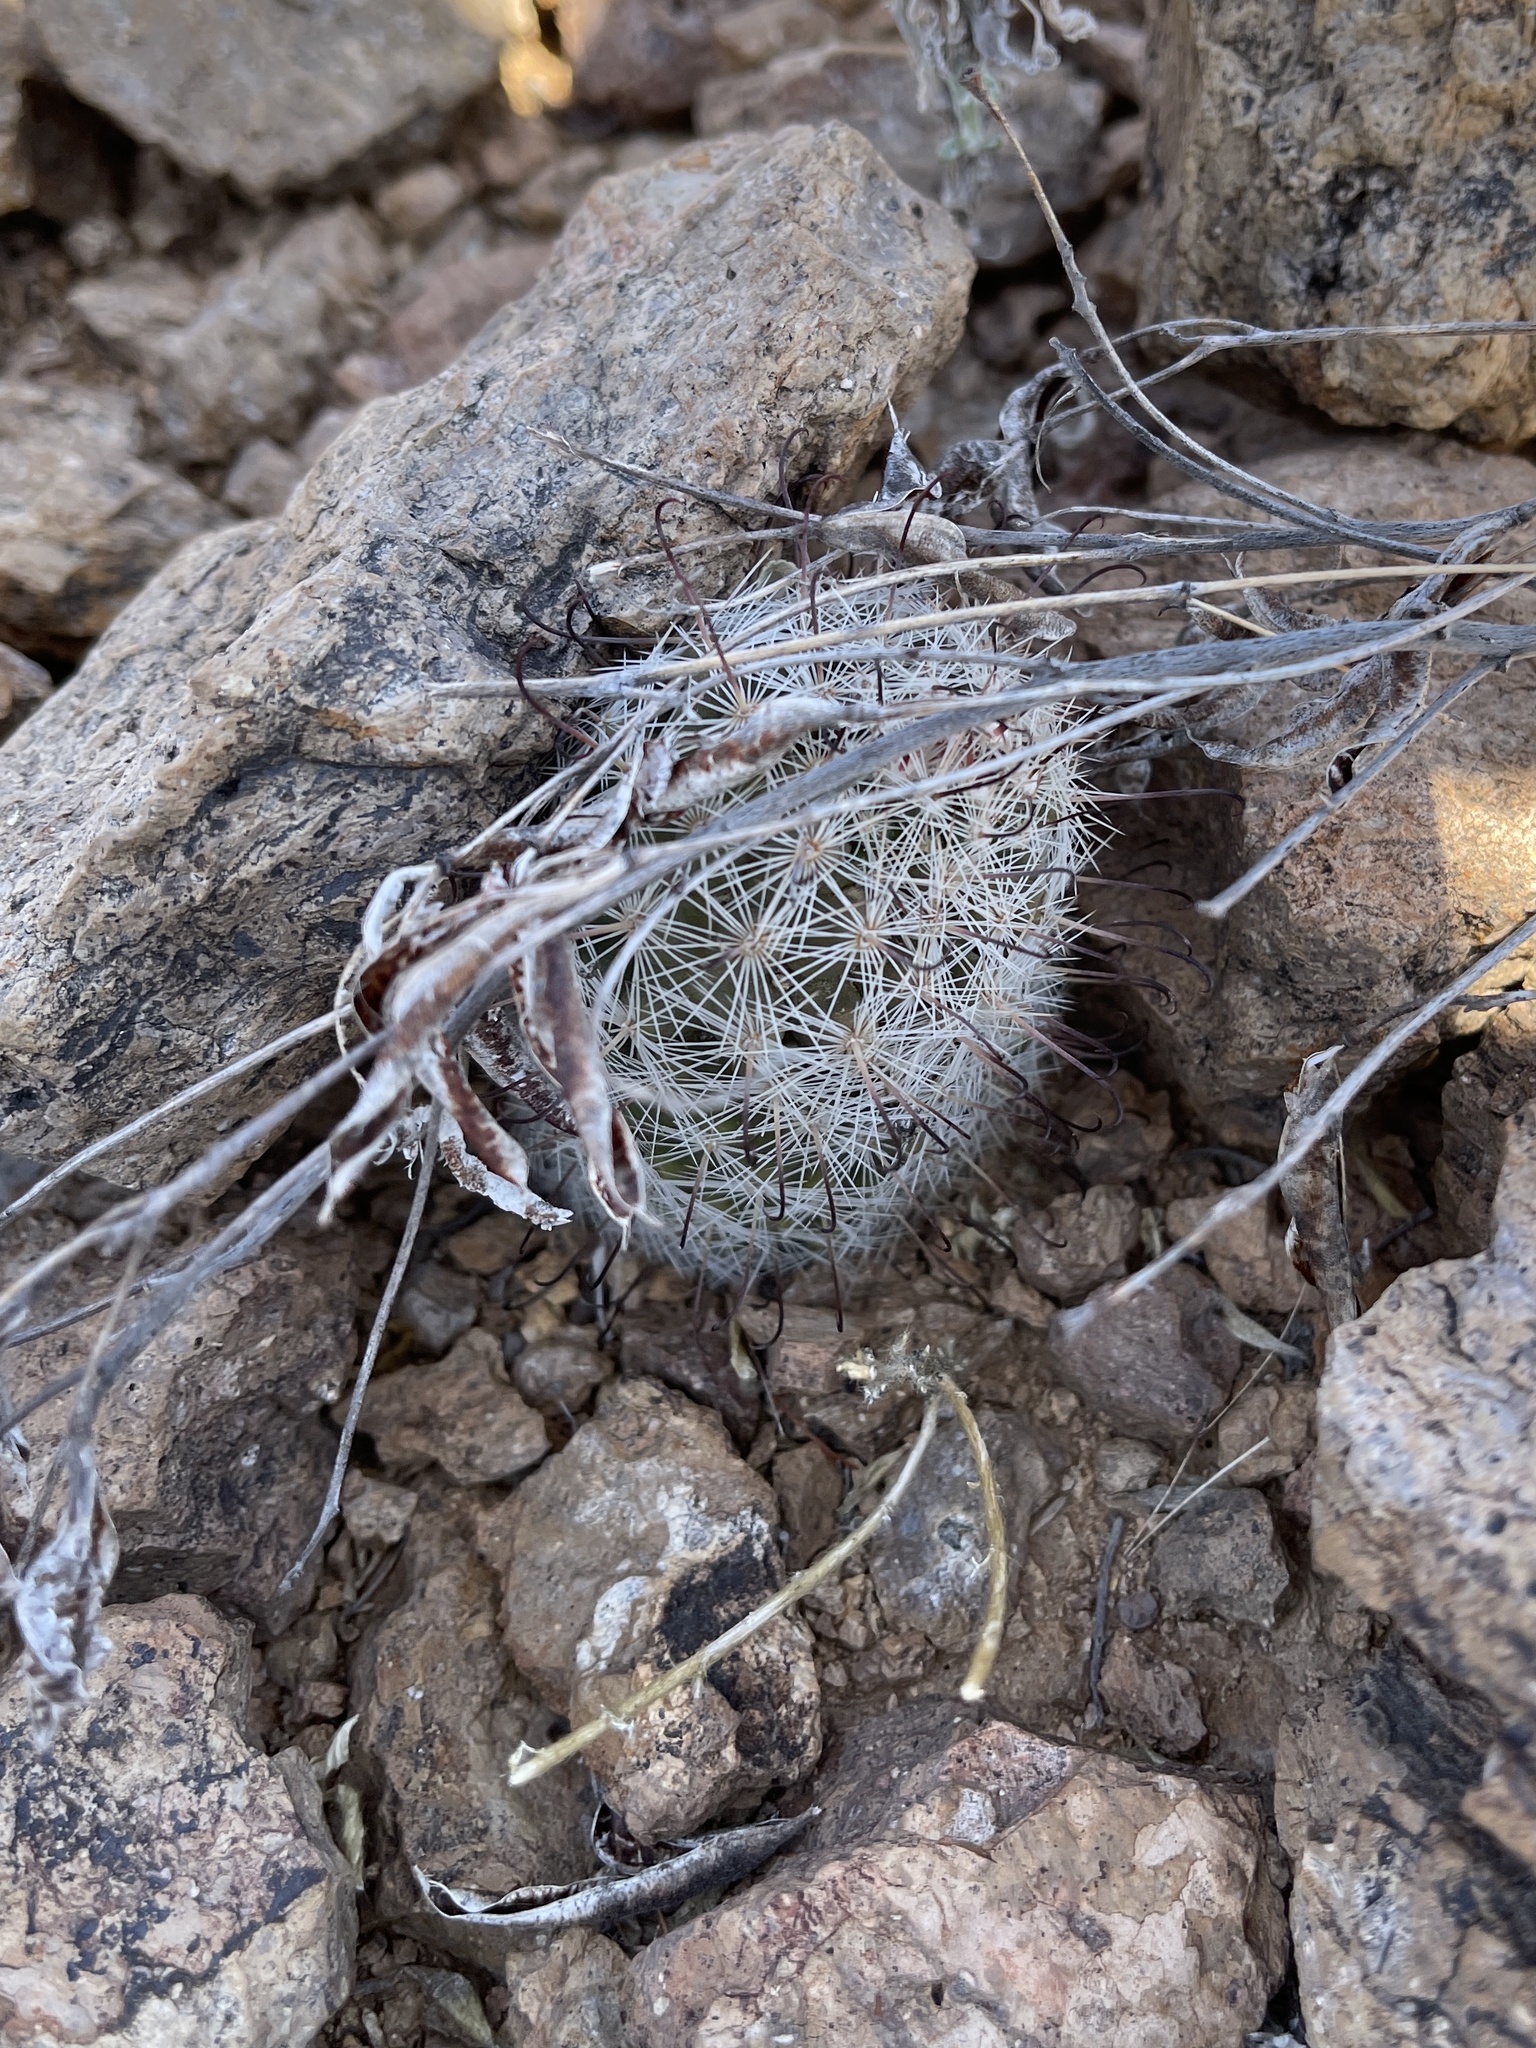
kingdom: Plantae
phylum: Tracheophyta
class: Magnoliopsida
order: Caryophyllales
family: Cactaceae
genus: Cochemiea
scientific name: Cochemiea grahamii
